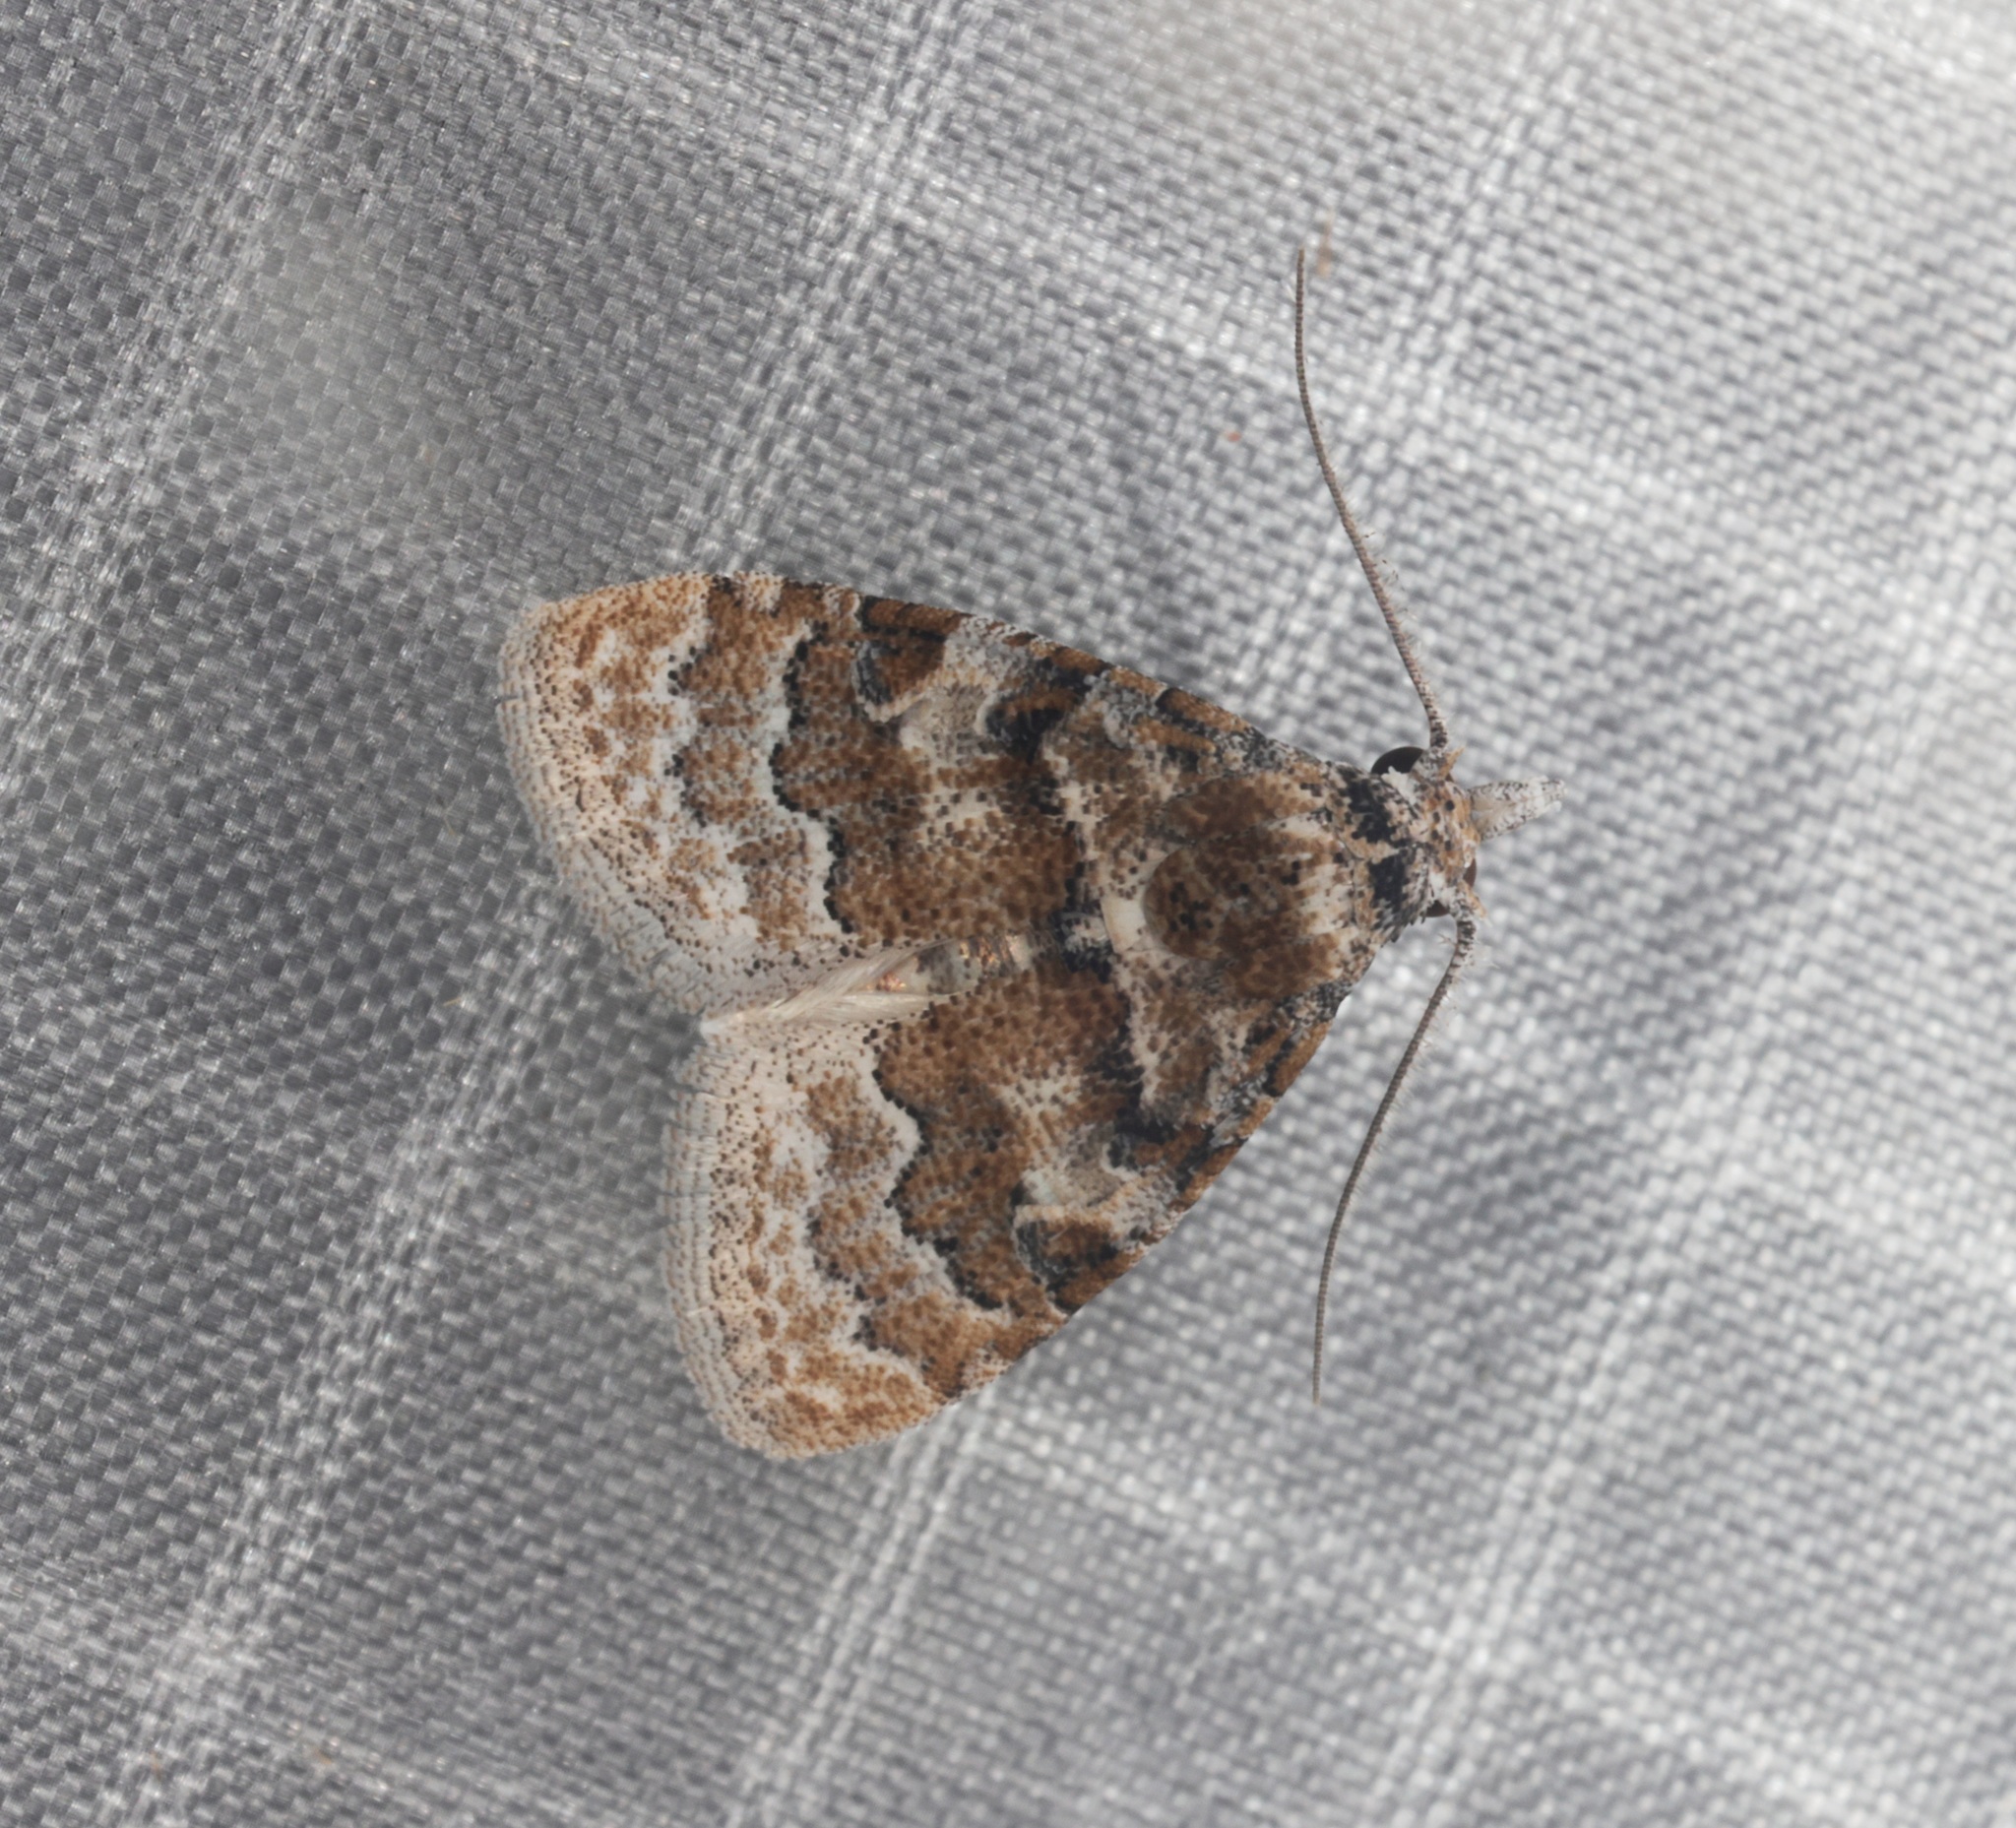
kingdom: Animalia
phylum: Arthropoda
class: Insecta
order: Lepidoptera
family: Nolidae
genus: Nola
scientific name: Nola bifascialis
